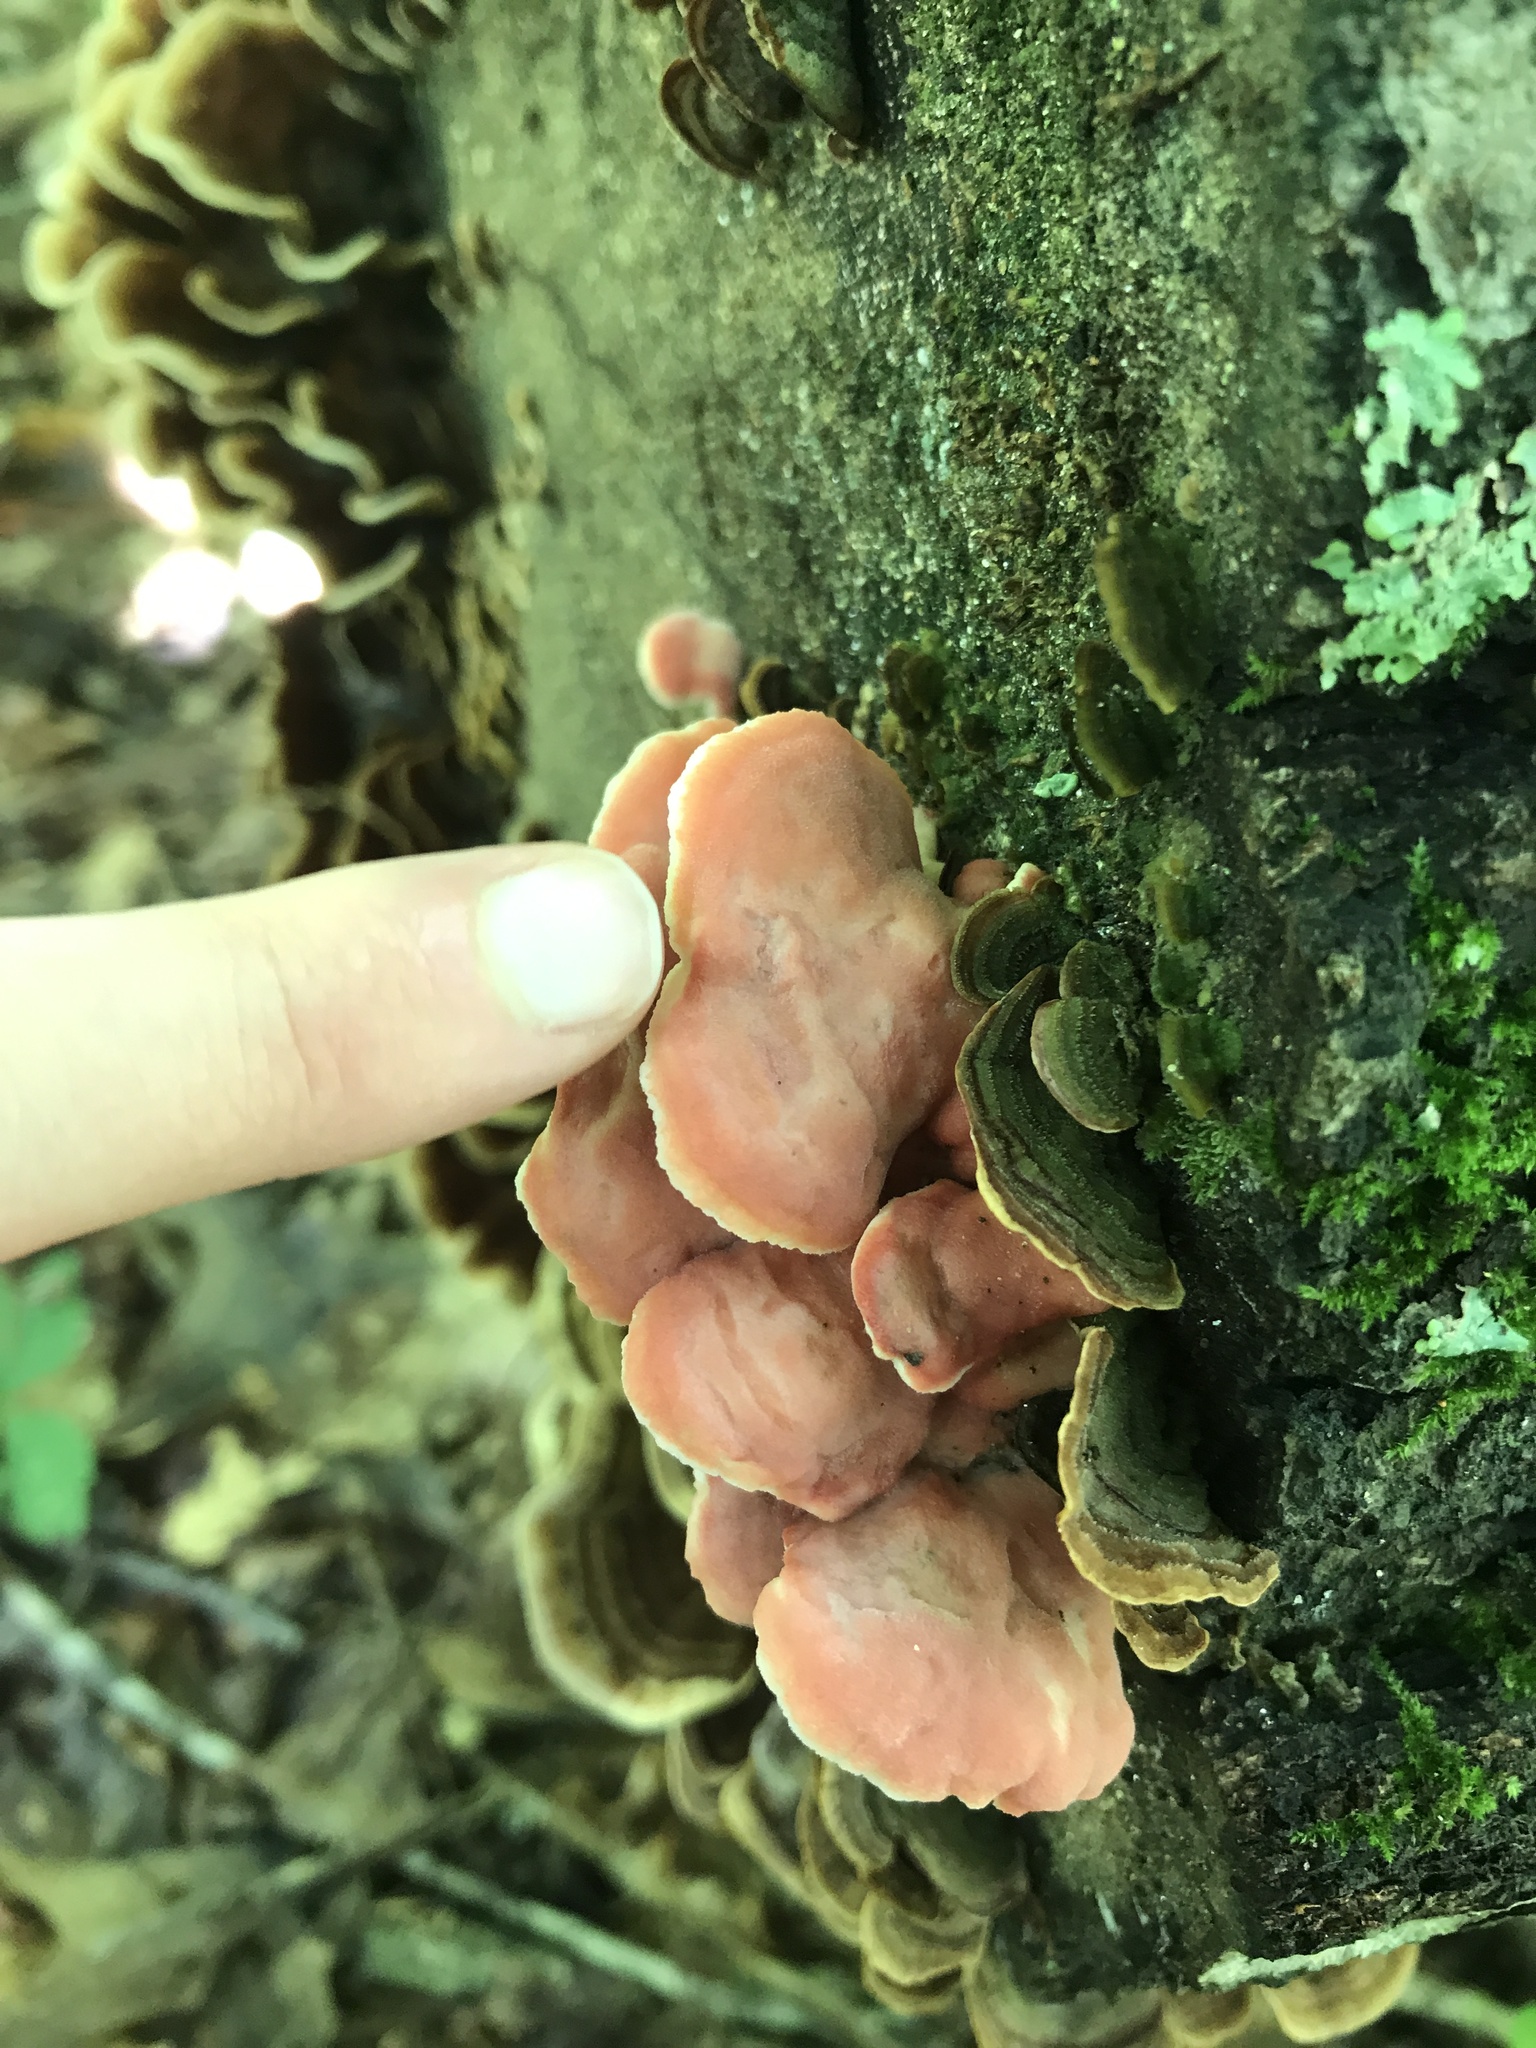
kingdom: Fungi
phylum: Basidiomycota
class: Agaricomycetes
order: Polyporales
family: Irpicaceae
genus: Byssomerulius
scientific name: Byssomerulius incarnatus
